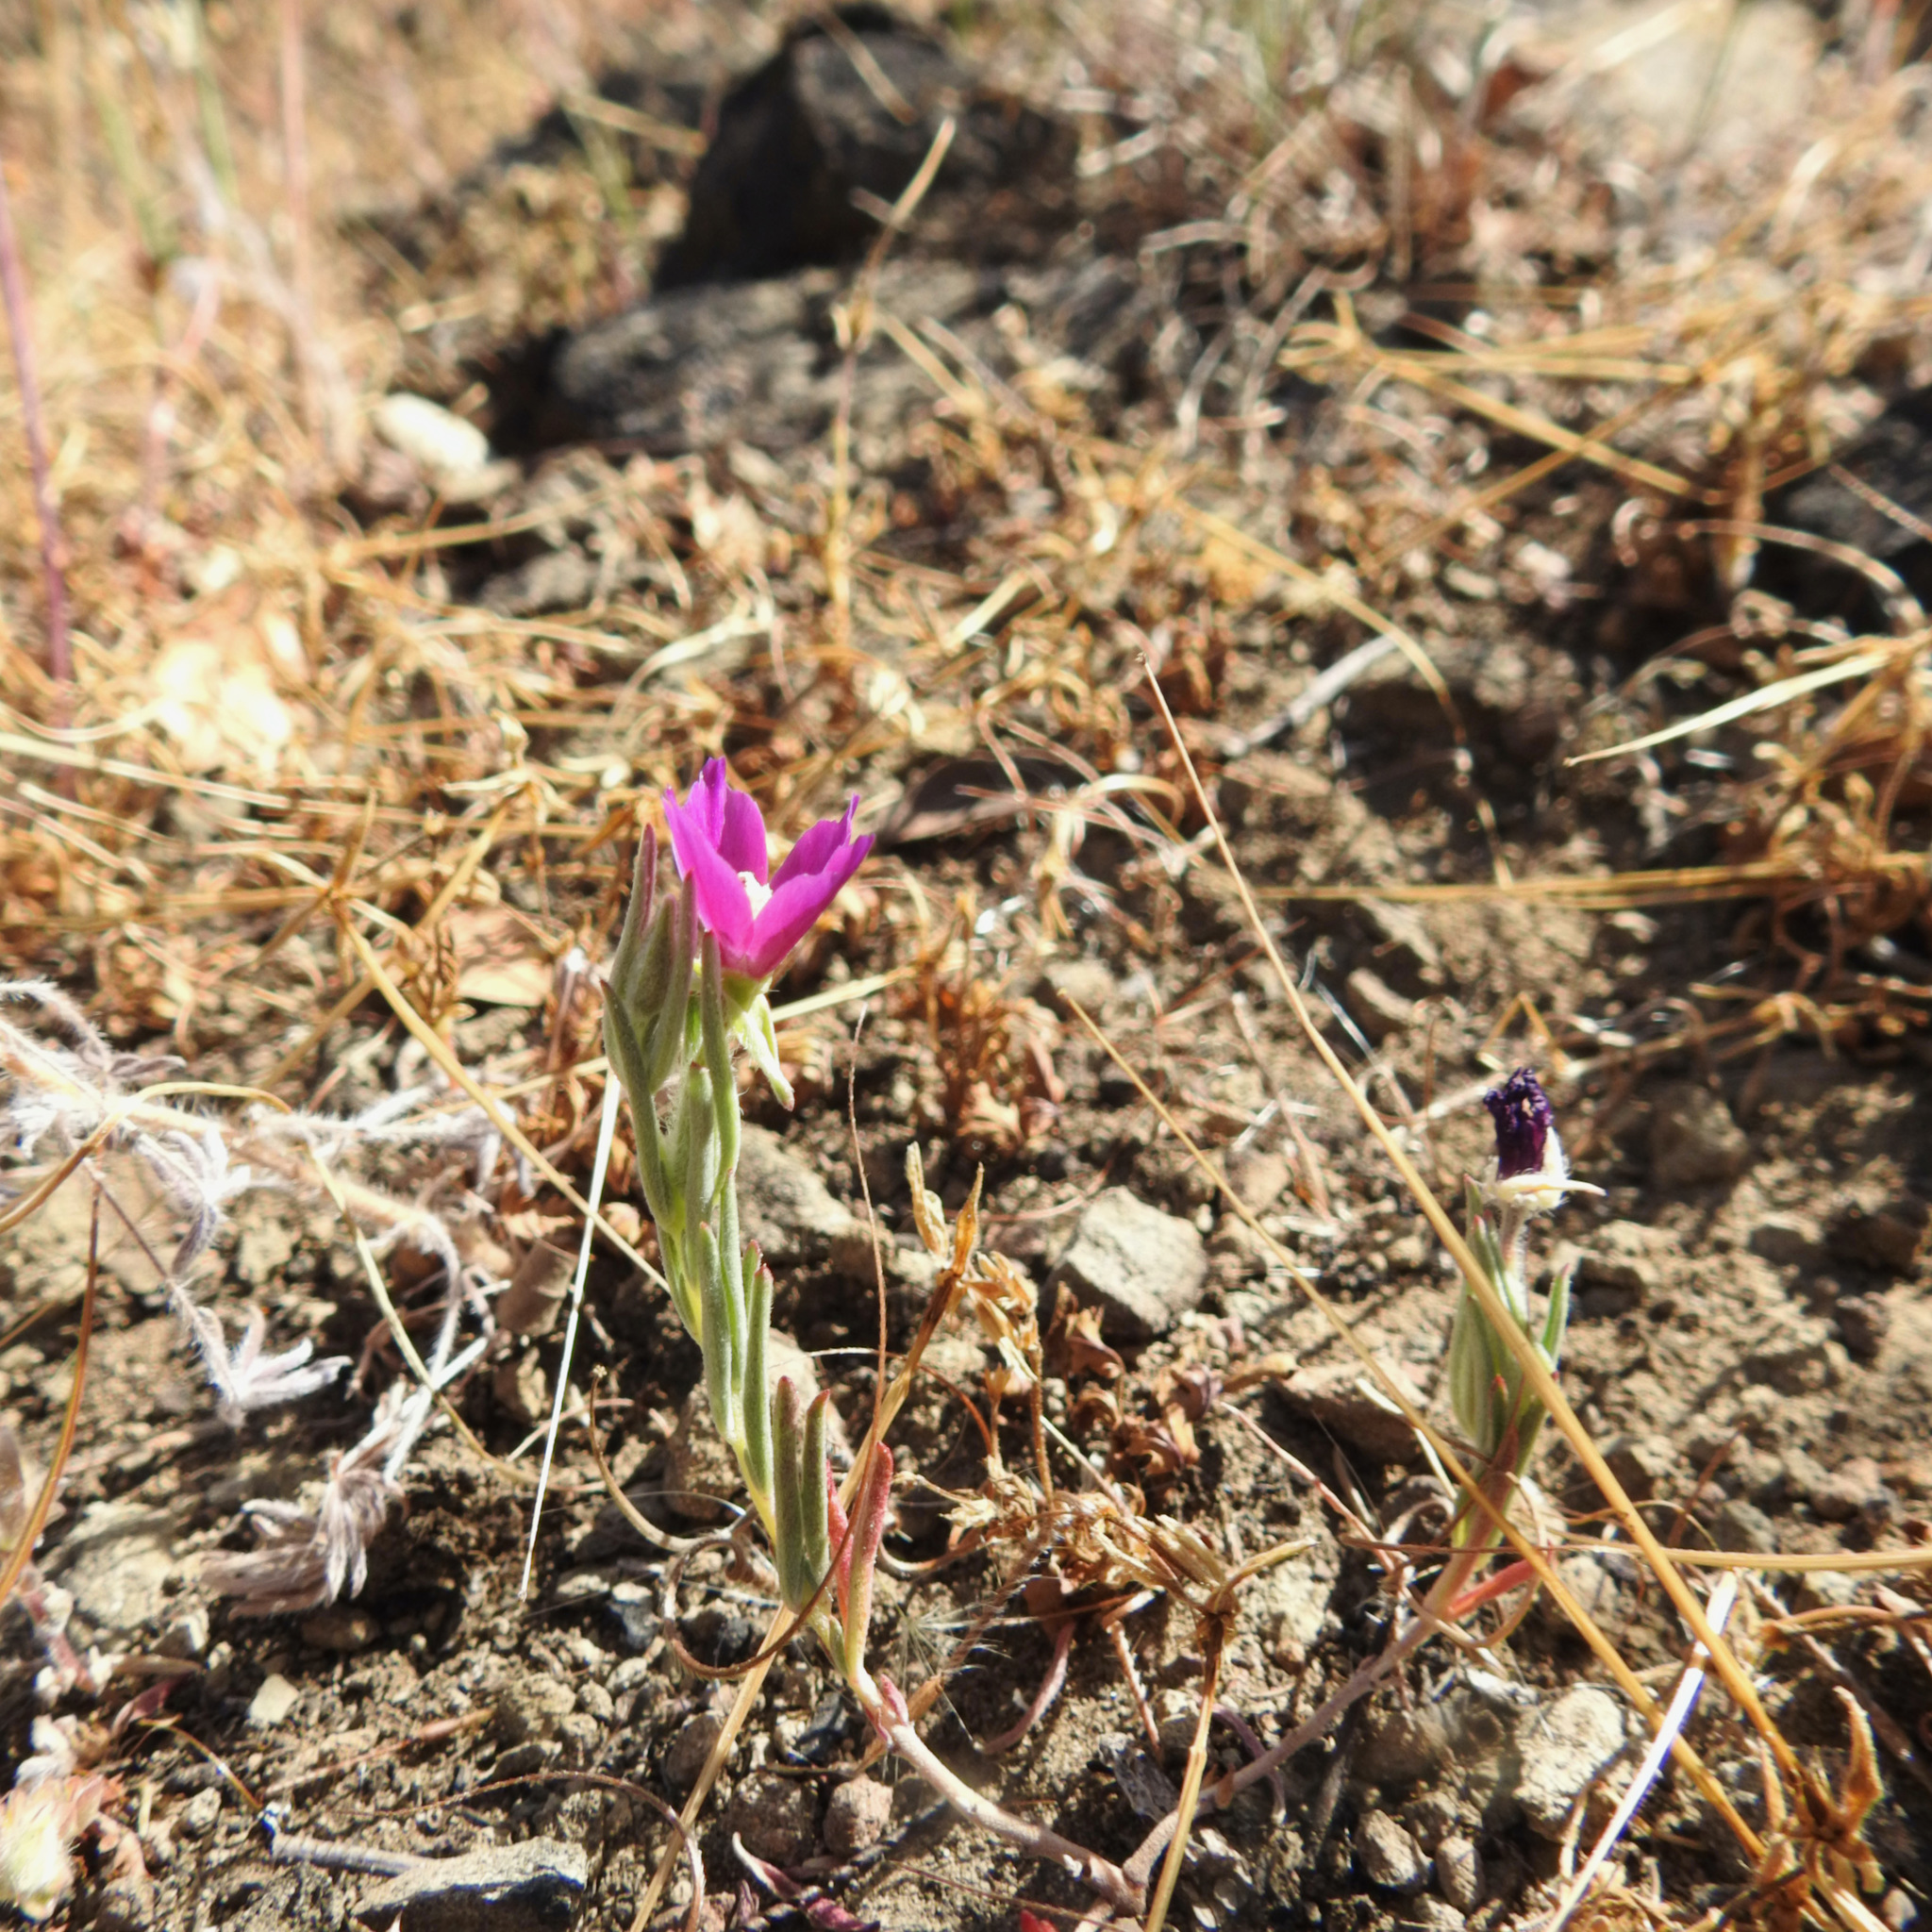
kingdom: Plantae
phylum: Tracheophyta
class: Magnoliopsida
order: Myrtales
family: Onagraceae
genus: Clarkia
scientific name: Clarkia purpurea
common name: Purple clarkia
